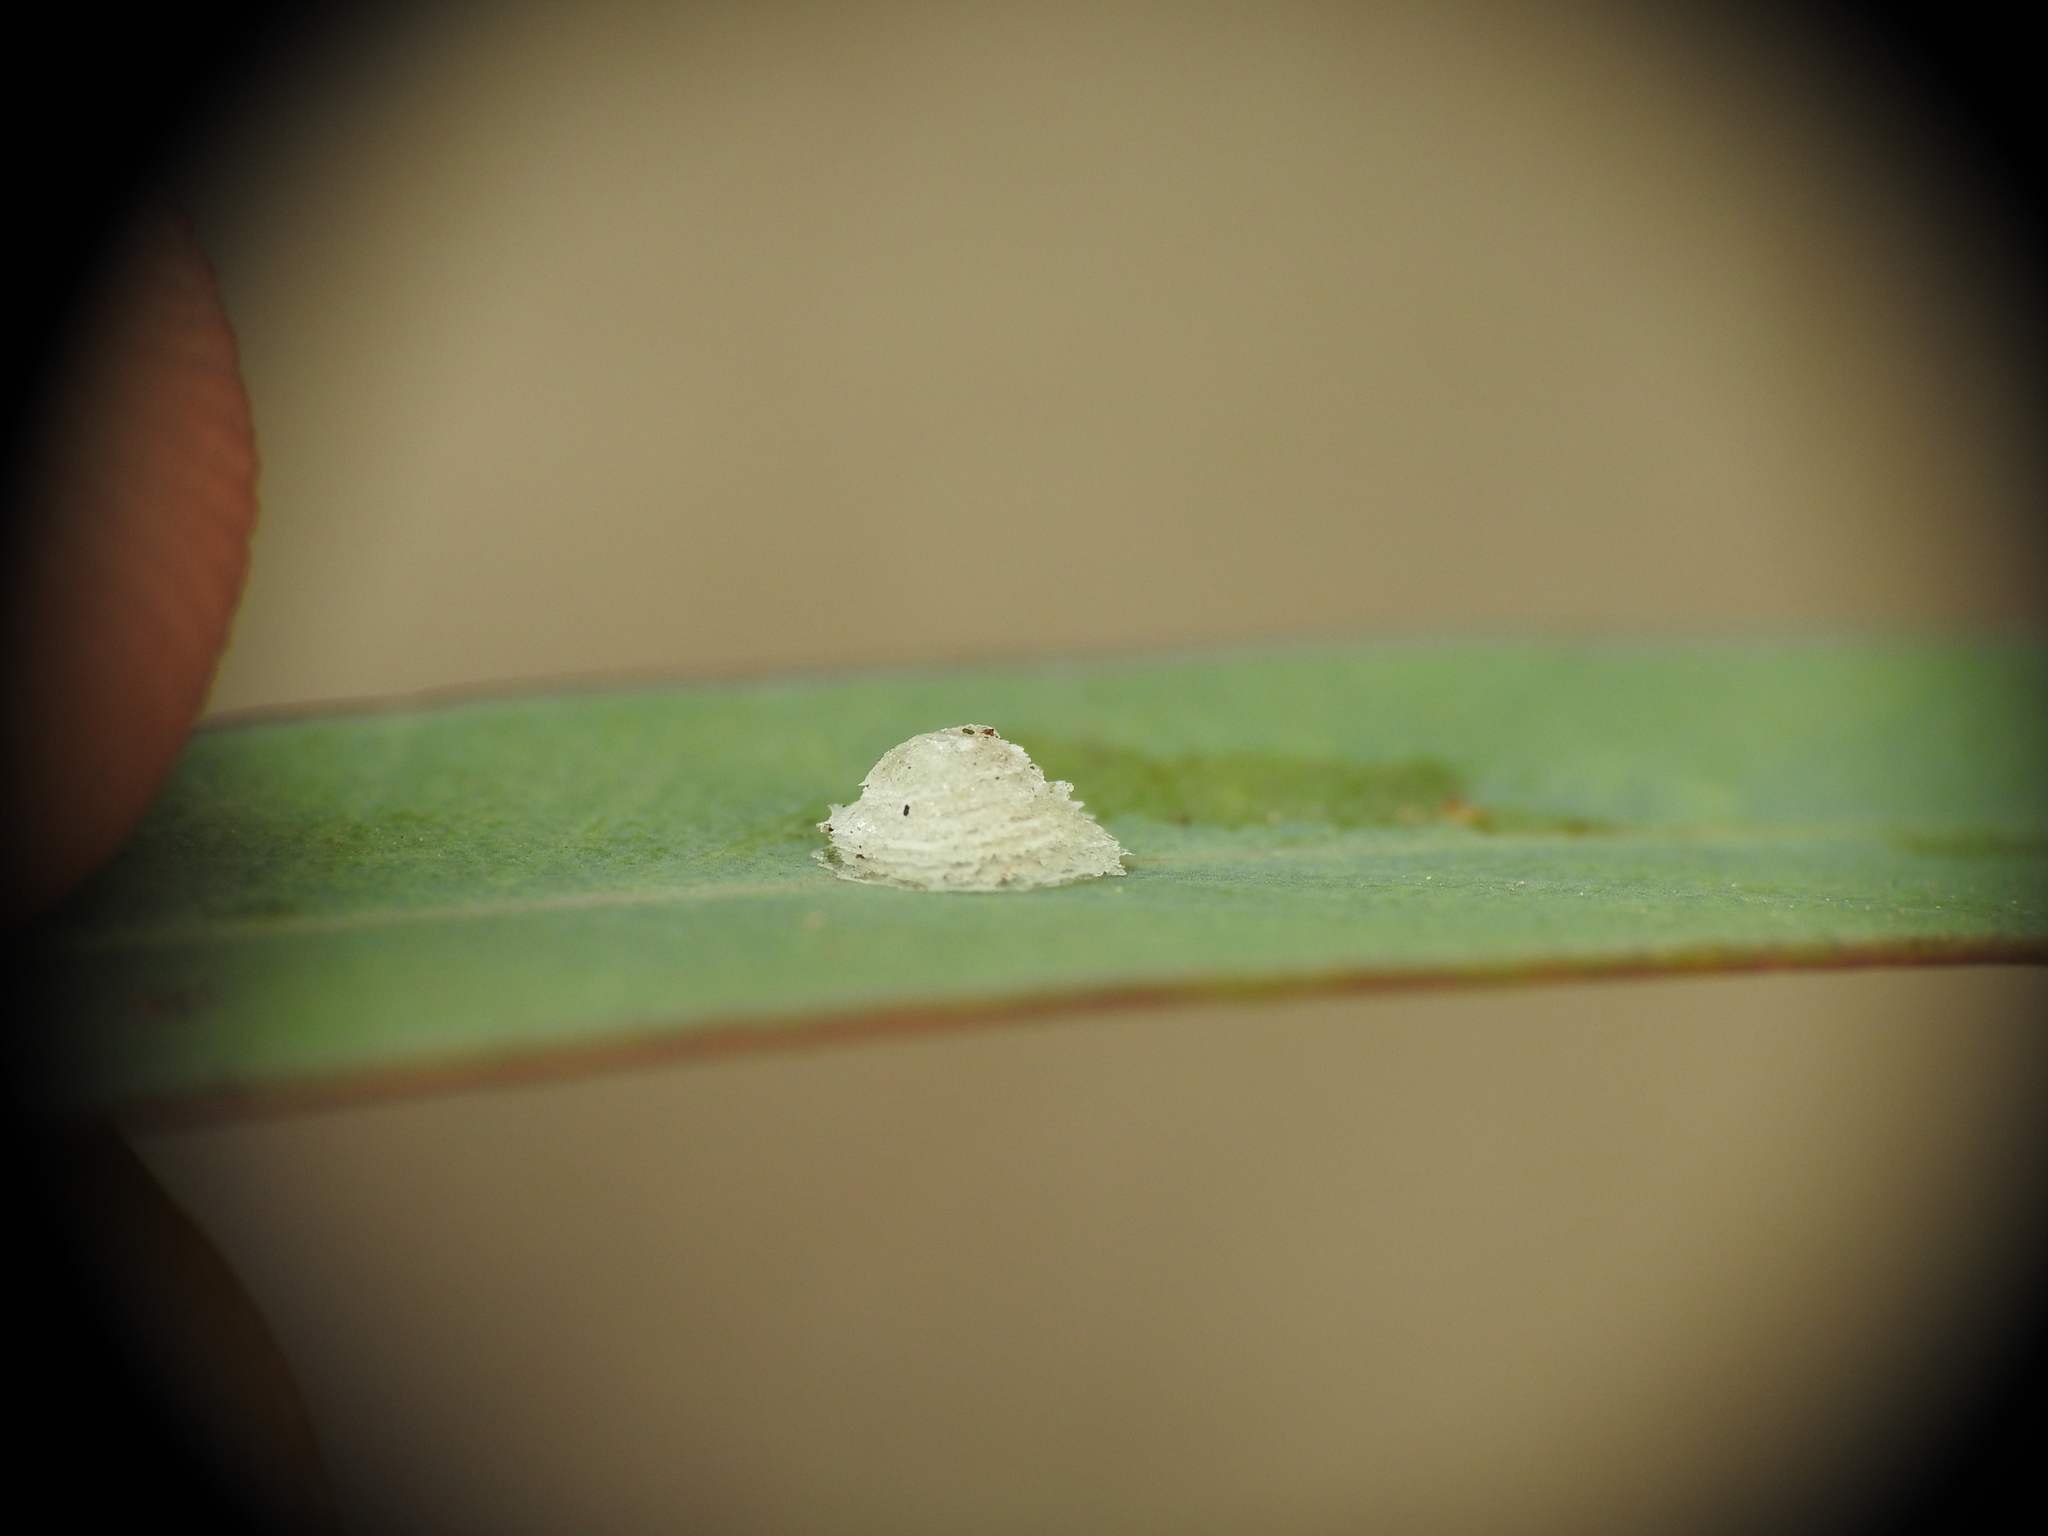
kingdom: Animalia
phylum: Arthropoda
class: Insecta
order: Hemiptera
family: Aphalaridae
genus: Glycaspis
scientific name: Glycaspis brimblecombei
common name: Red gum lerp psyllid
